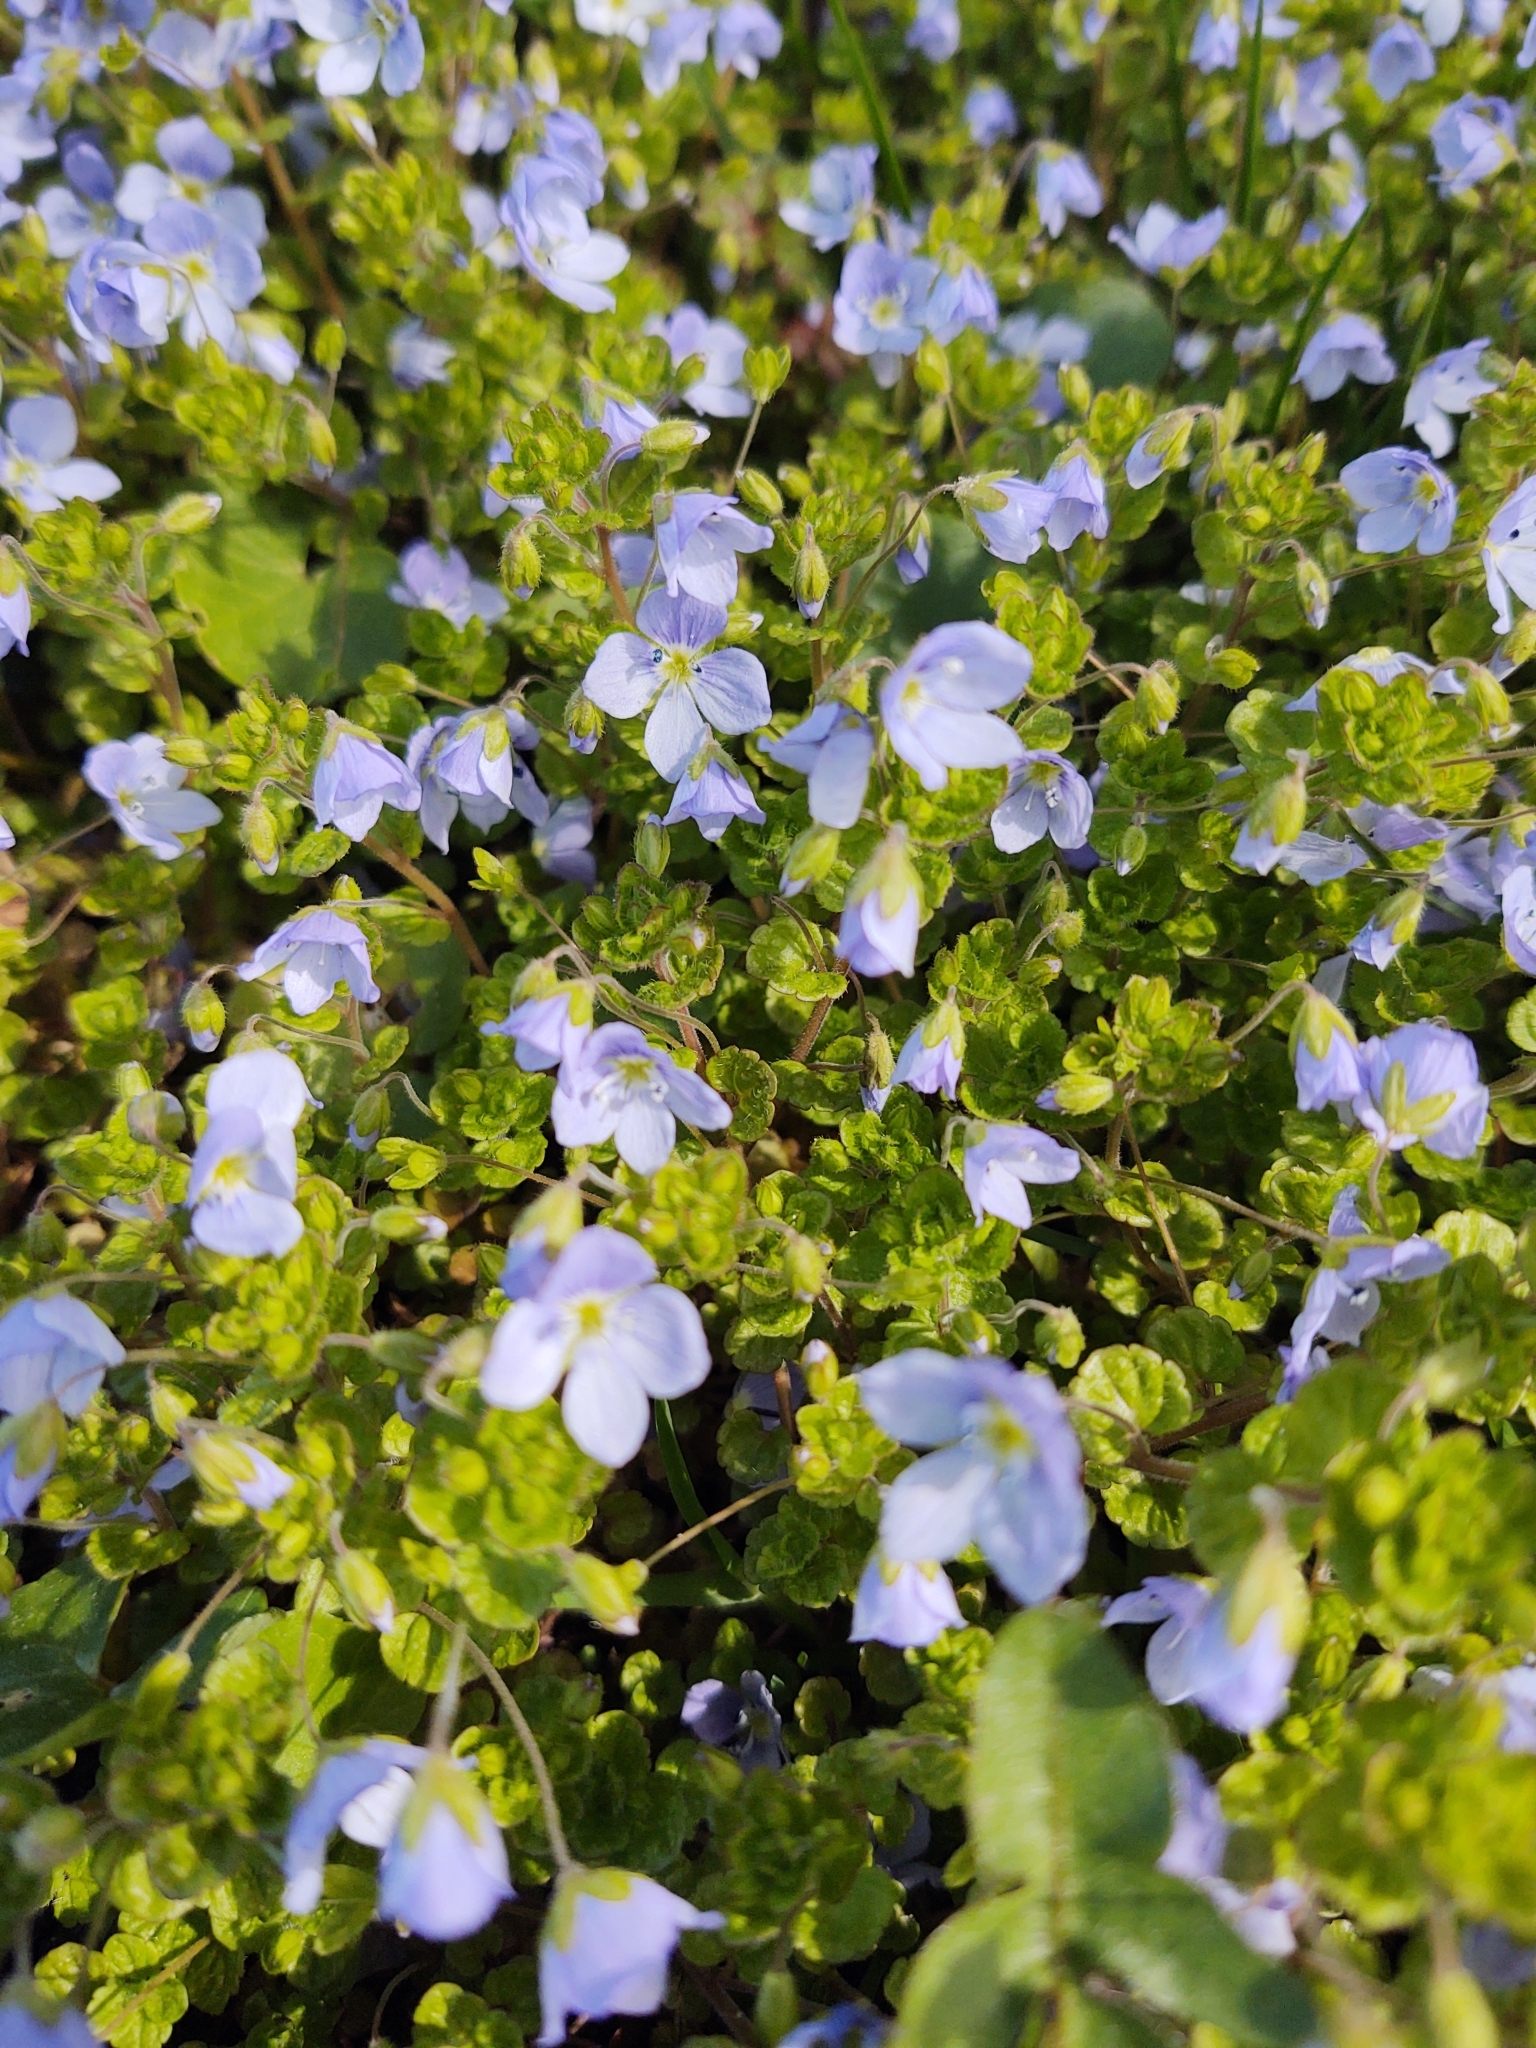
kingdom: Plantae
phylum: Tracheophyta
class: Magnoliopsida
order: Lamiales
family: Plantaginaceae
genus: Veronica
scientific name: Veronica filiformis
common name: Slender speedwell
